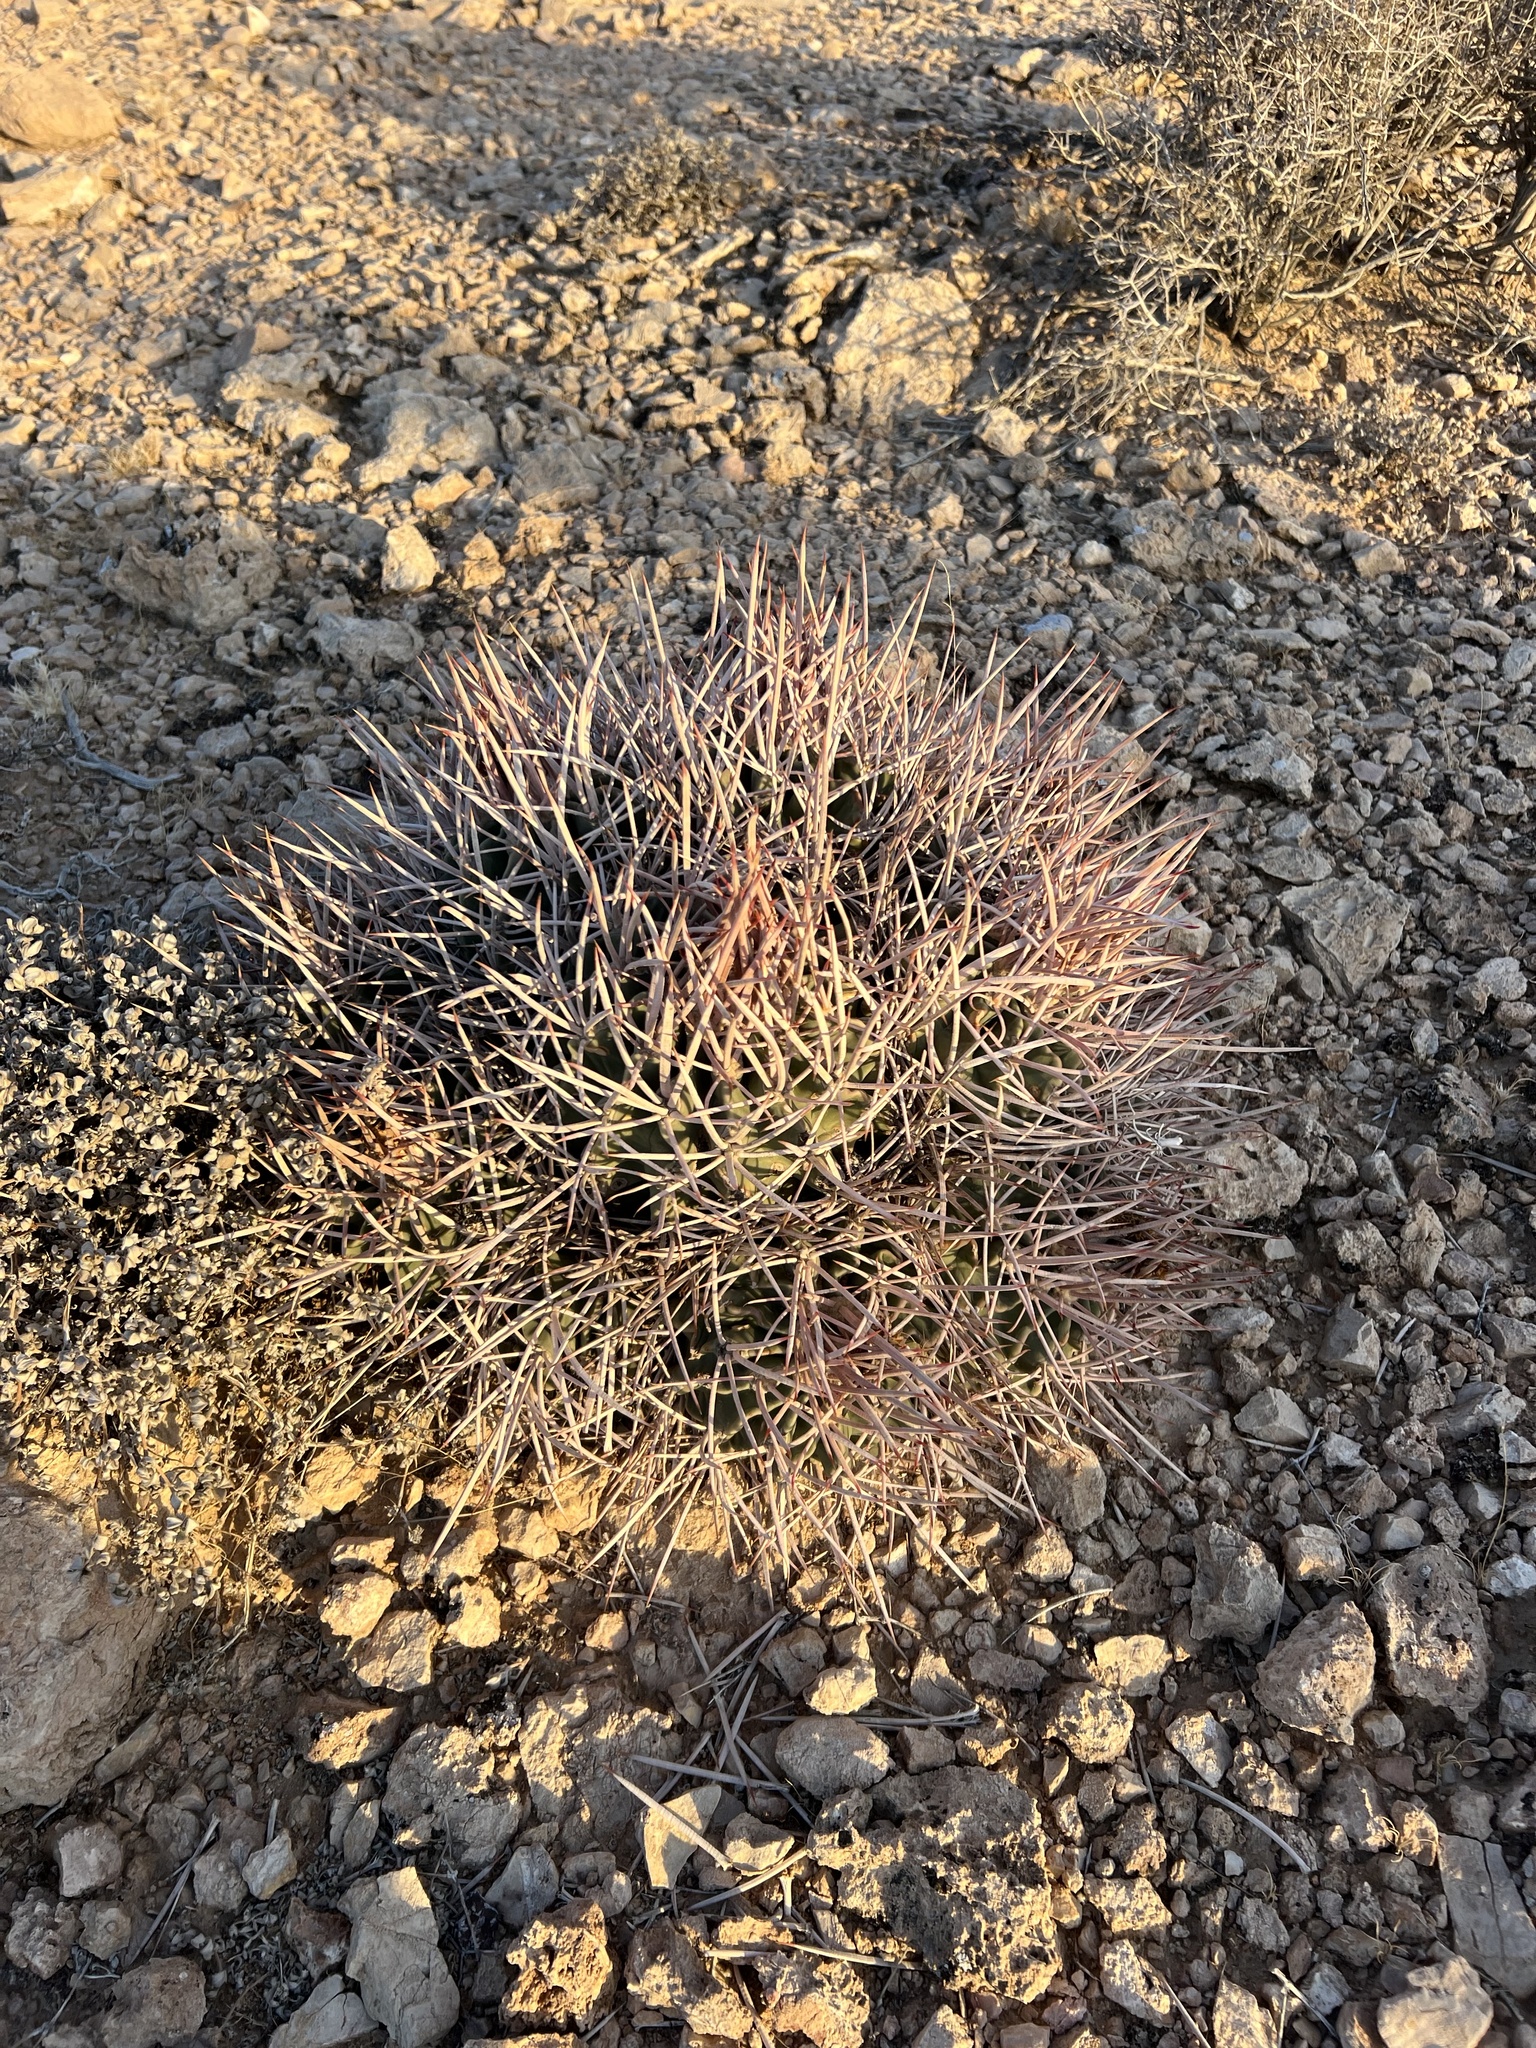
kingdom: Plantae
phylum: Tracheophyta
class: Magnoliopsida
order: Caryophyllales
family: Cactaceae
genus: Echinocactus
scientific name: Echinocactus polycephalus
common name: Cottontop cactus
